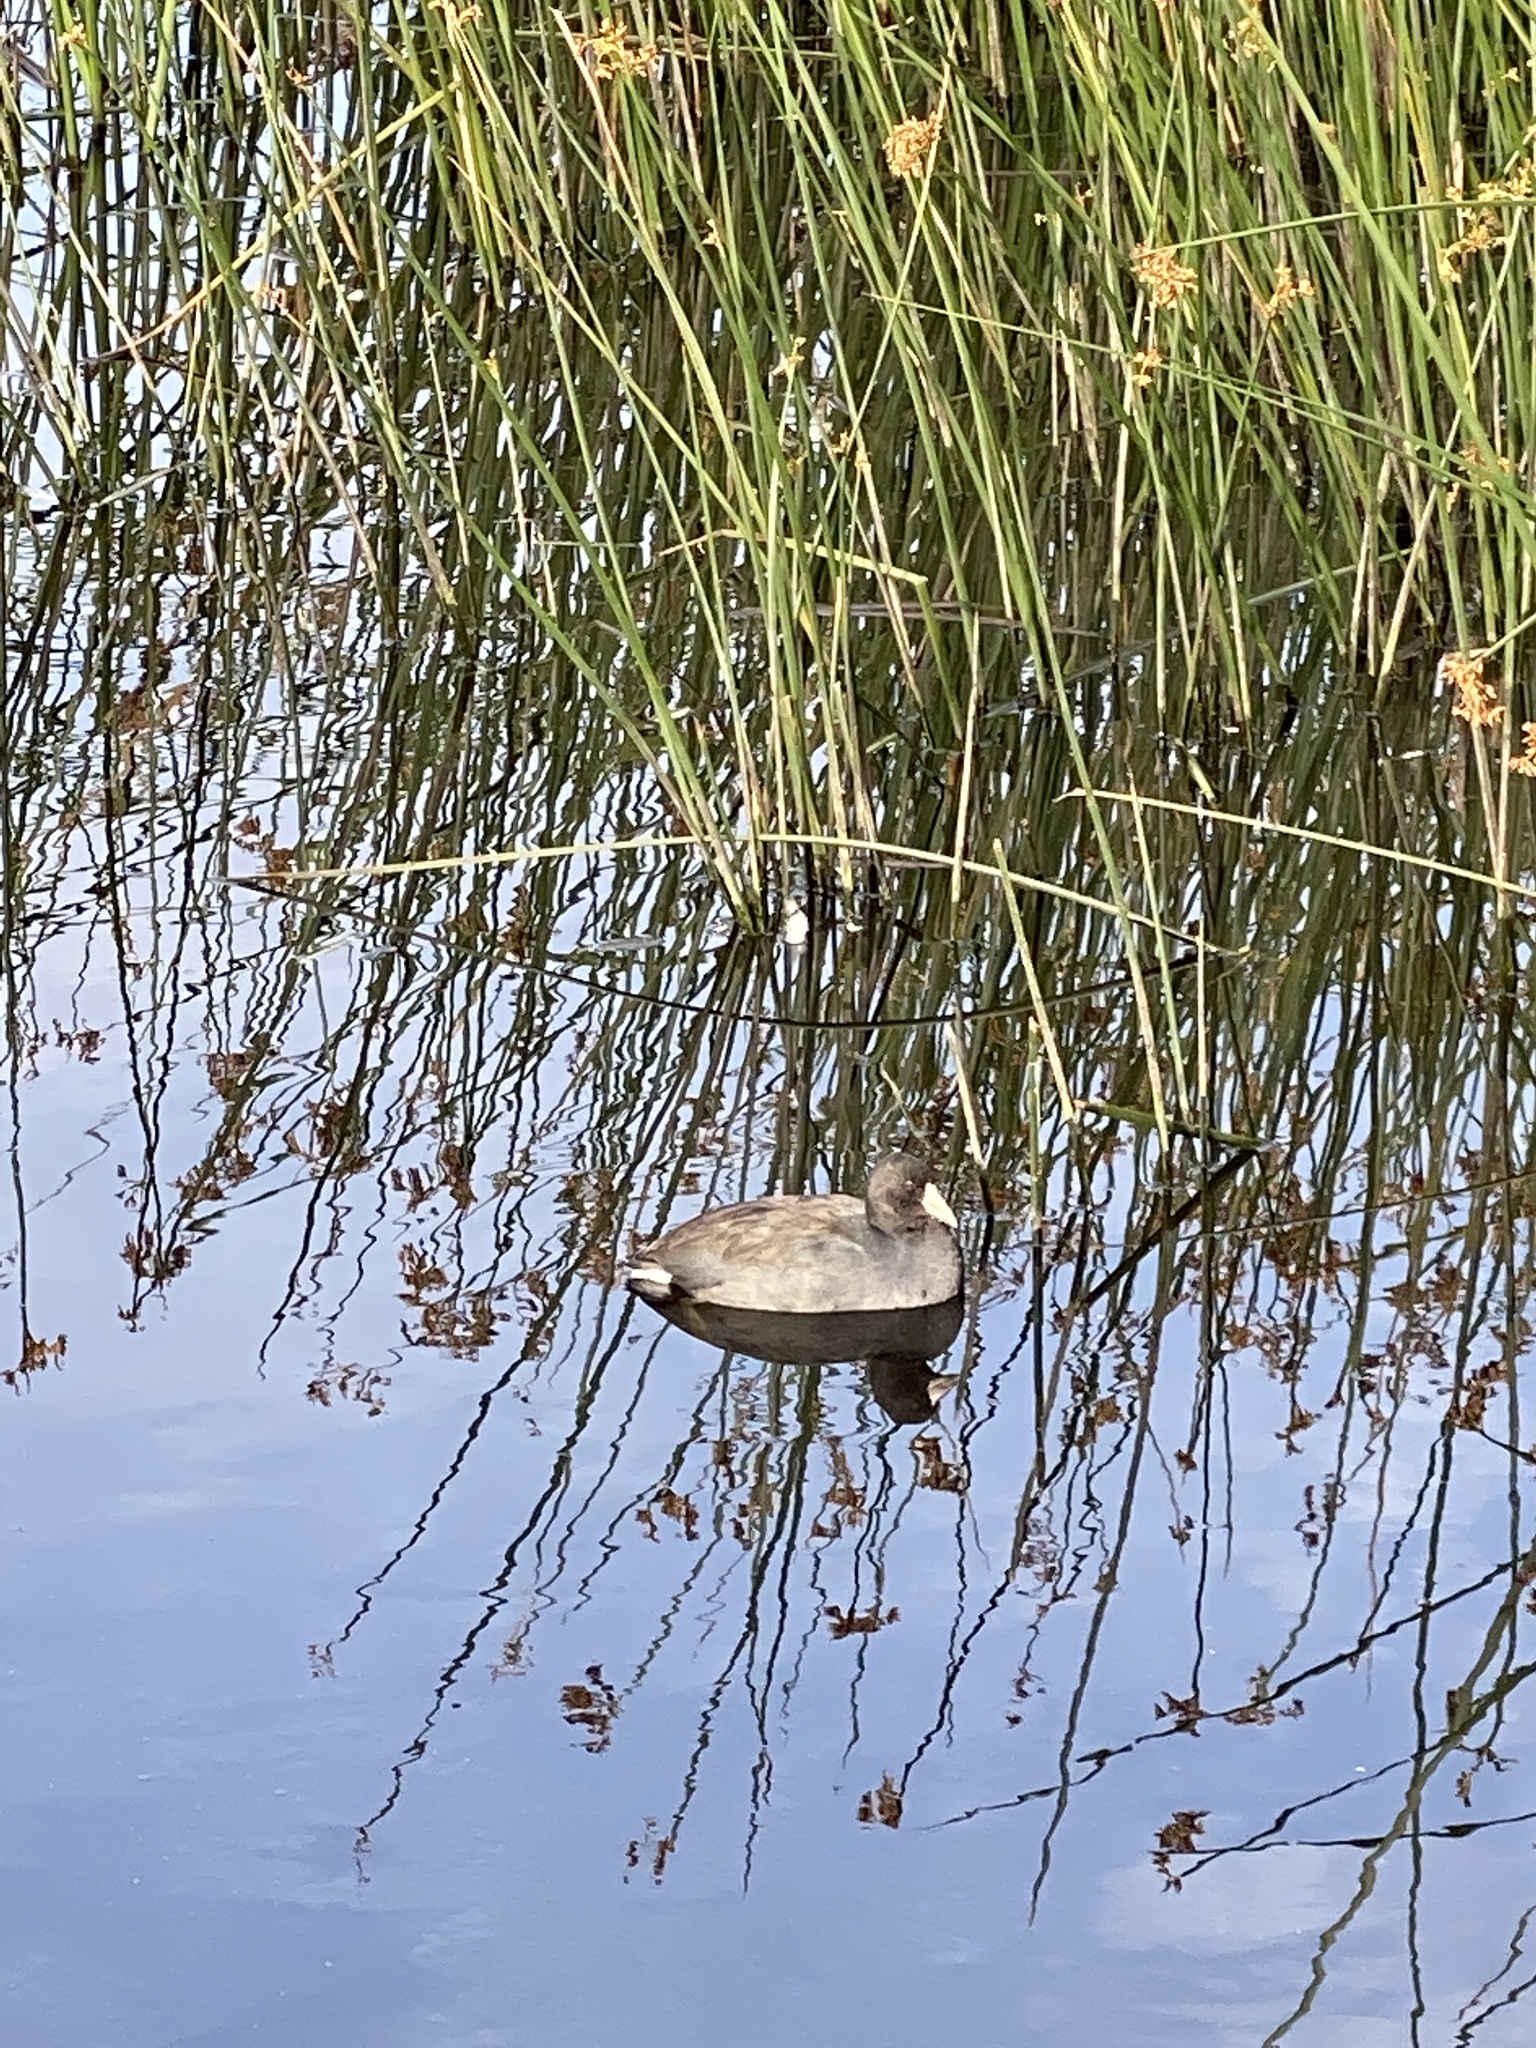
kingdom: Animalia
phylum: Chordata
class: Aves
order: Gruiformes
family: Rallidae
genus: Fulica
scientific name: Fulica americana
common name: American coot
